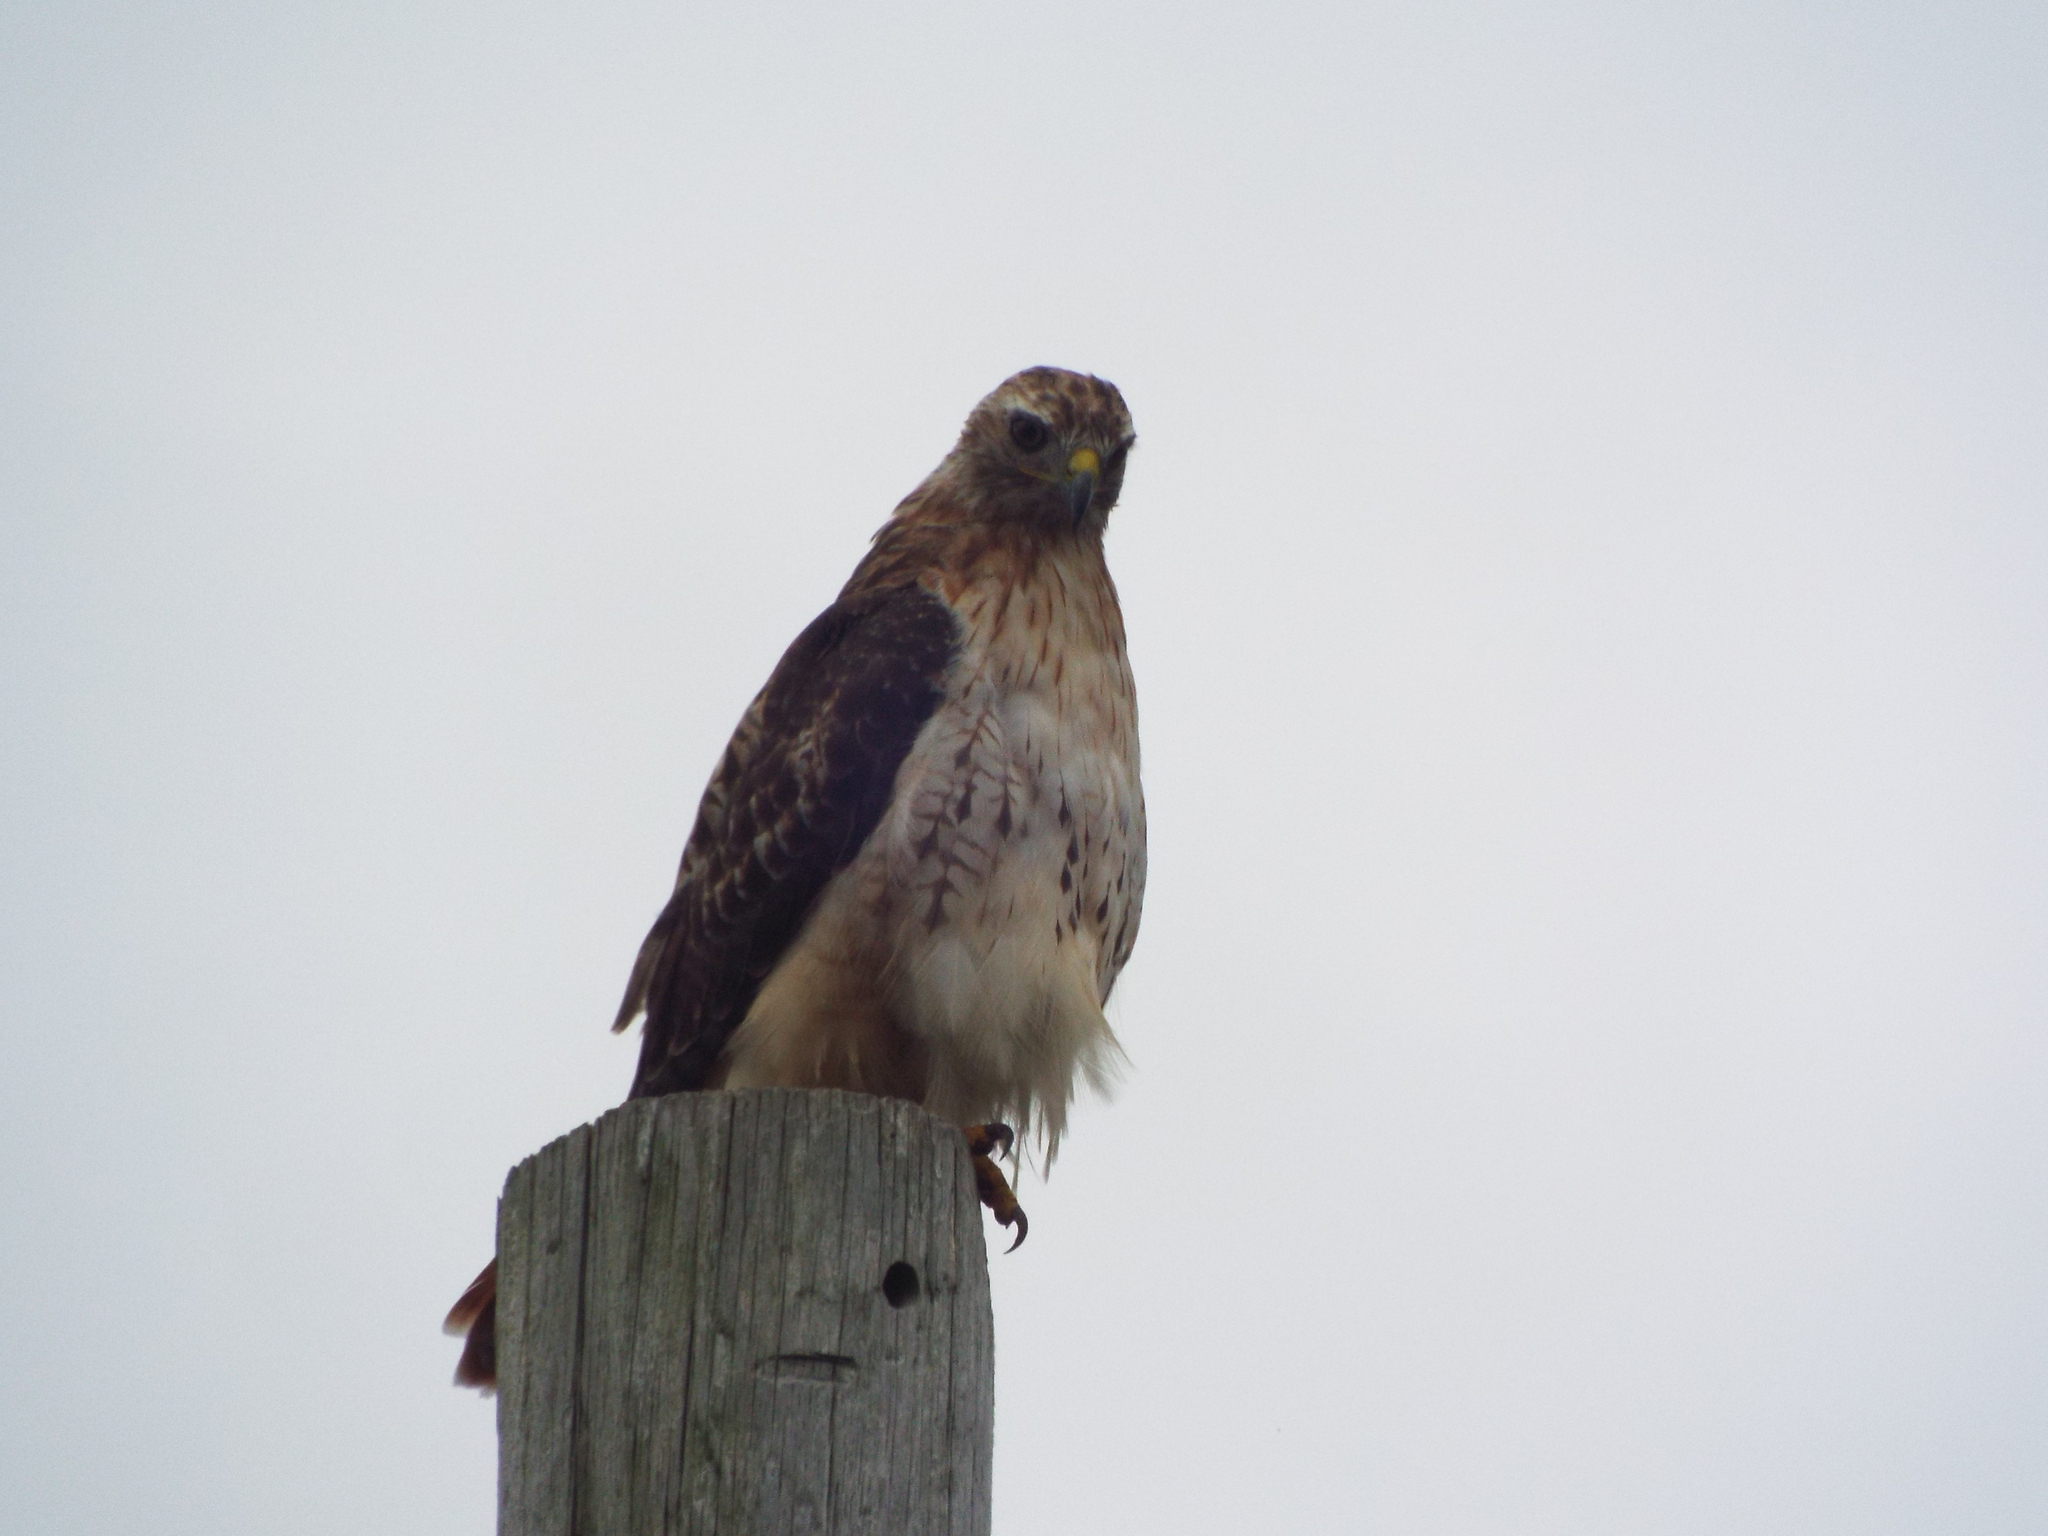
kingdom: Animalia
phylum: Chordata
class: Aves
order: Accipitriformes
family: Accipitridae
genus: Buteo
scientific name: Buteo jamaicensis
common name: Red-tailed hawk
